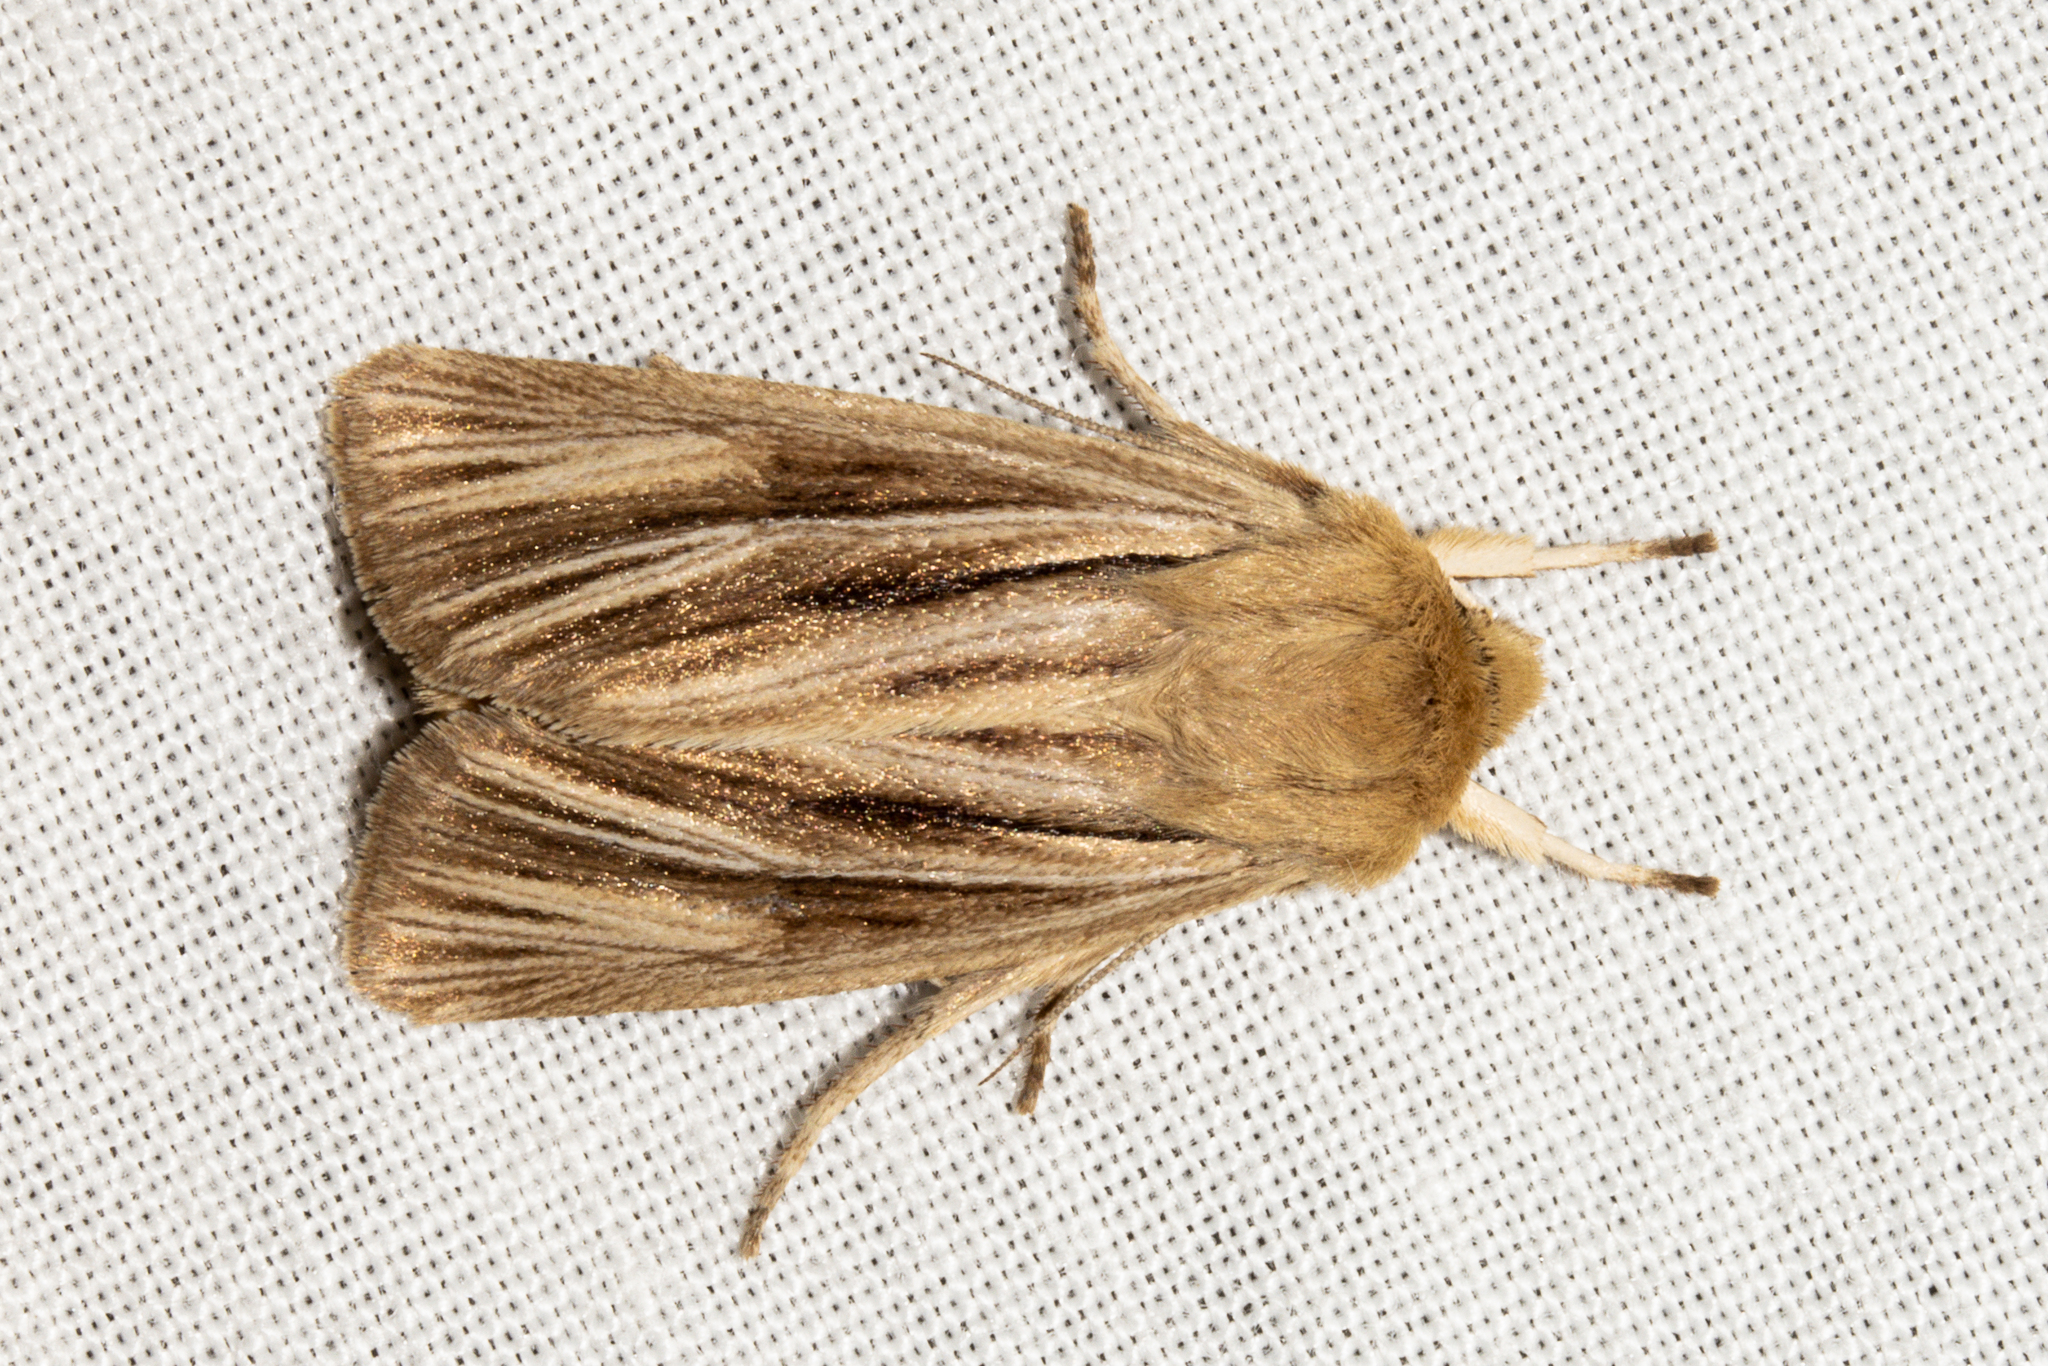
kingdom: Animalia
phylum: Arthropoda
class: Insecta
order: Lepidoptera
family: Noctuidae
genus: Ichneutica
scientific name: Ichneutica
